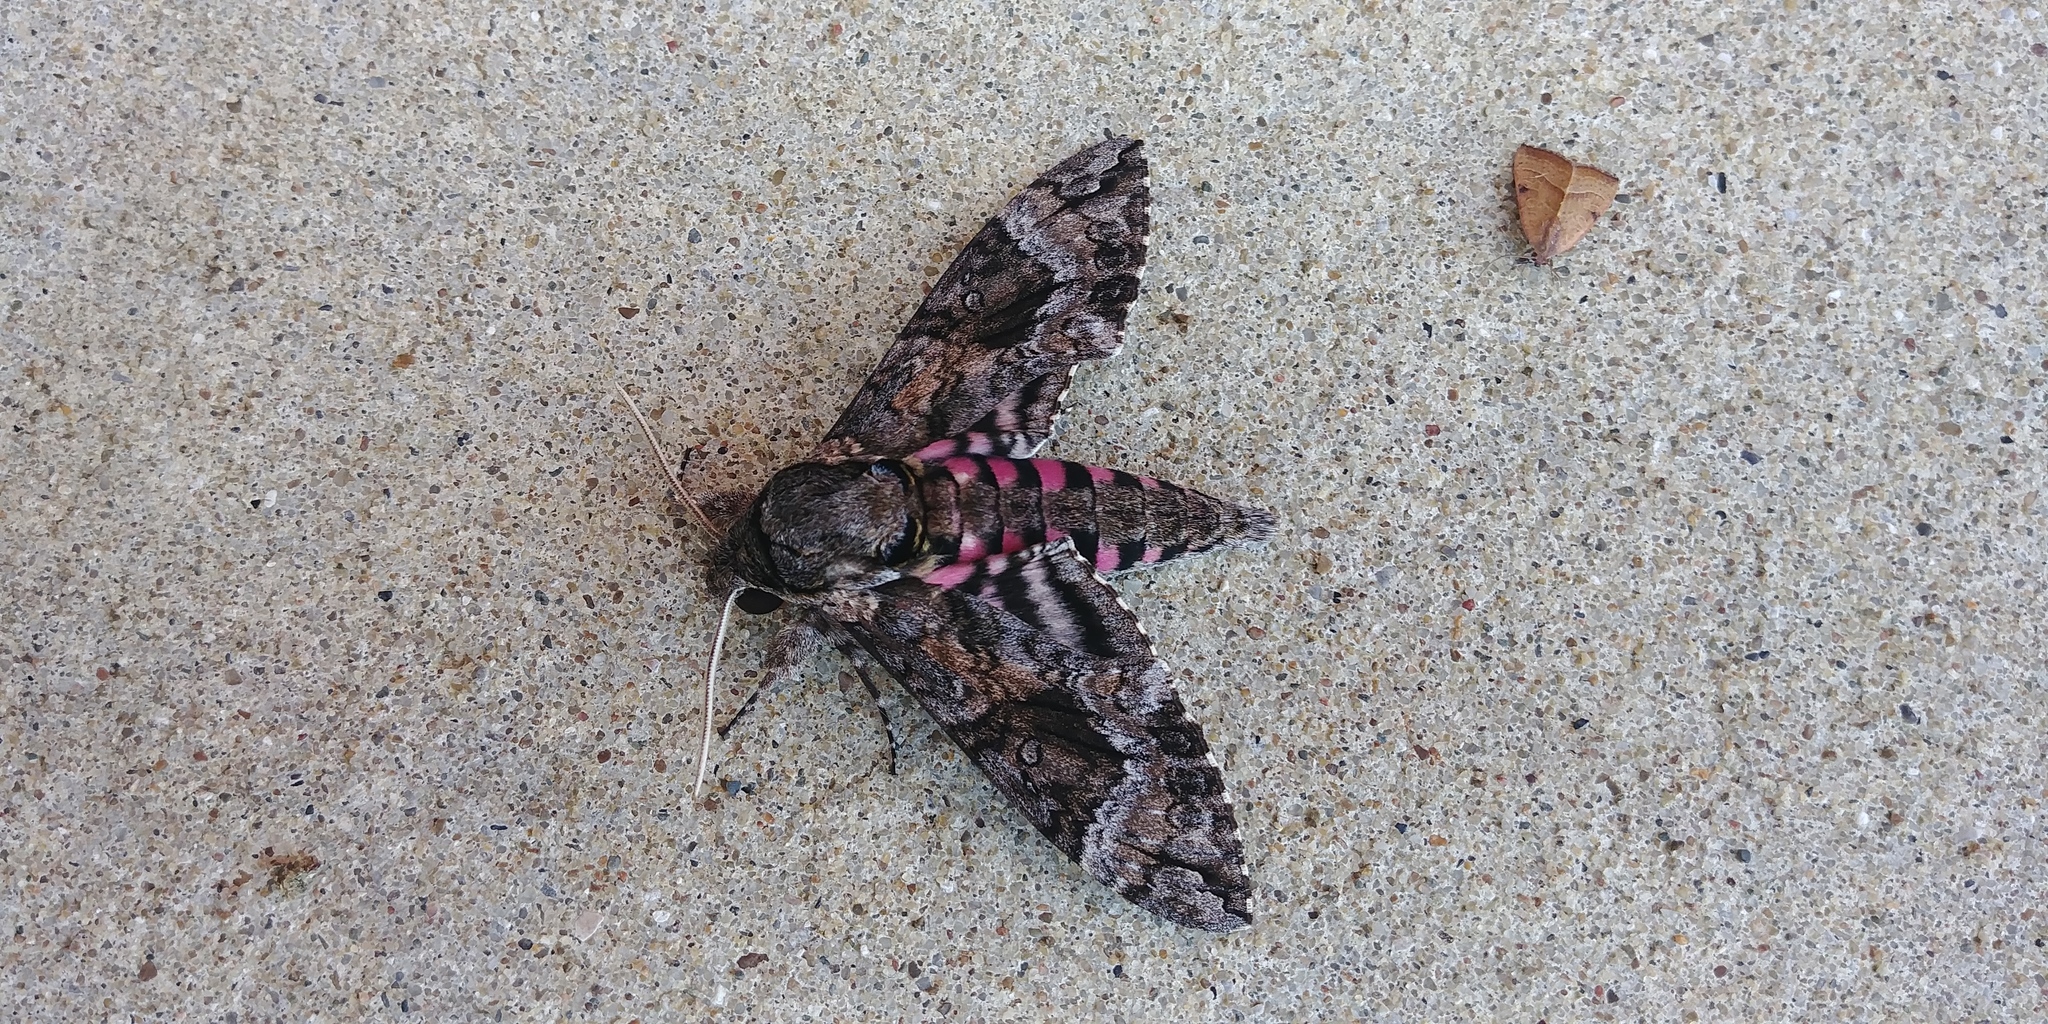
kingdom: Animalia
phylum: Arthropoda
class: Insecta
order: Lepidoptera
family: Sphingidae
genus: Agrius
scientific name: Agrius cingulata
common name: Pink-spotted hawkmoth
